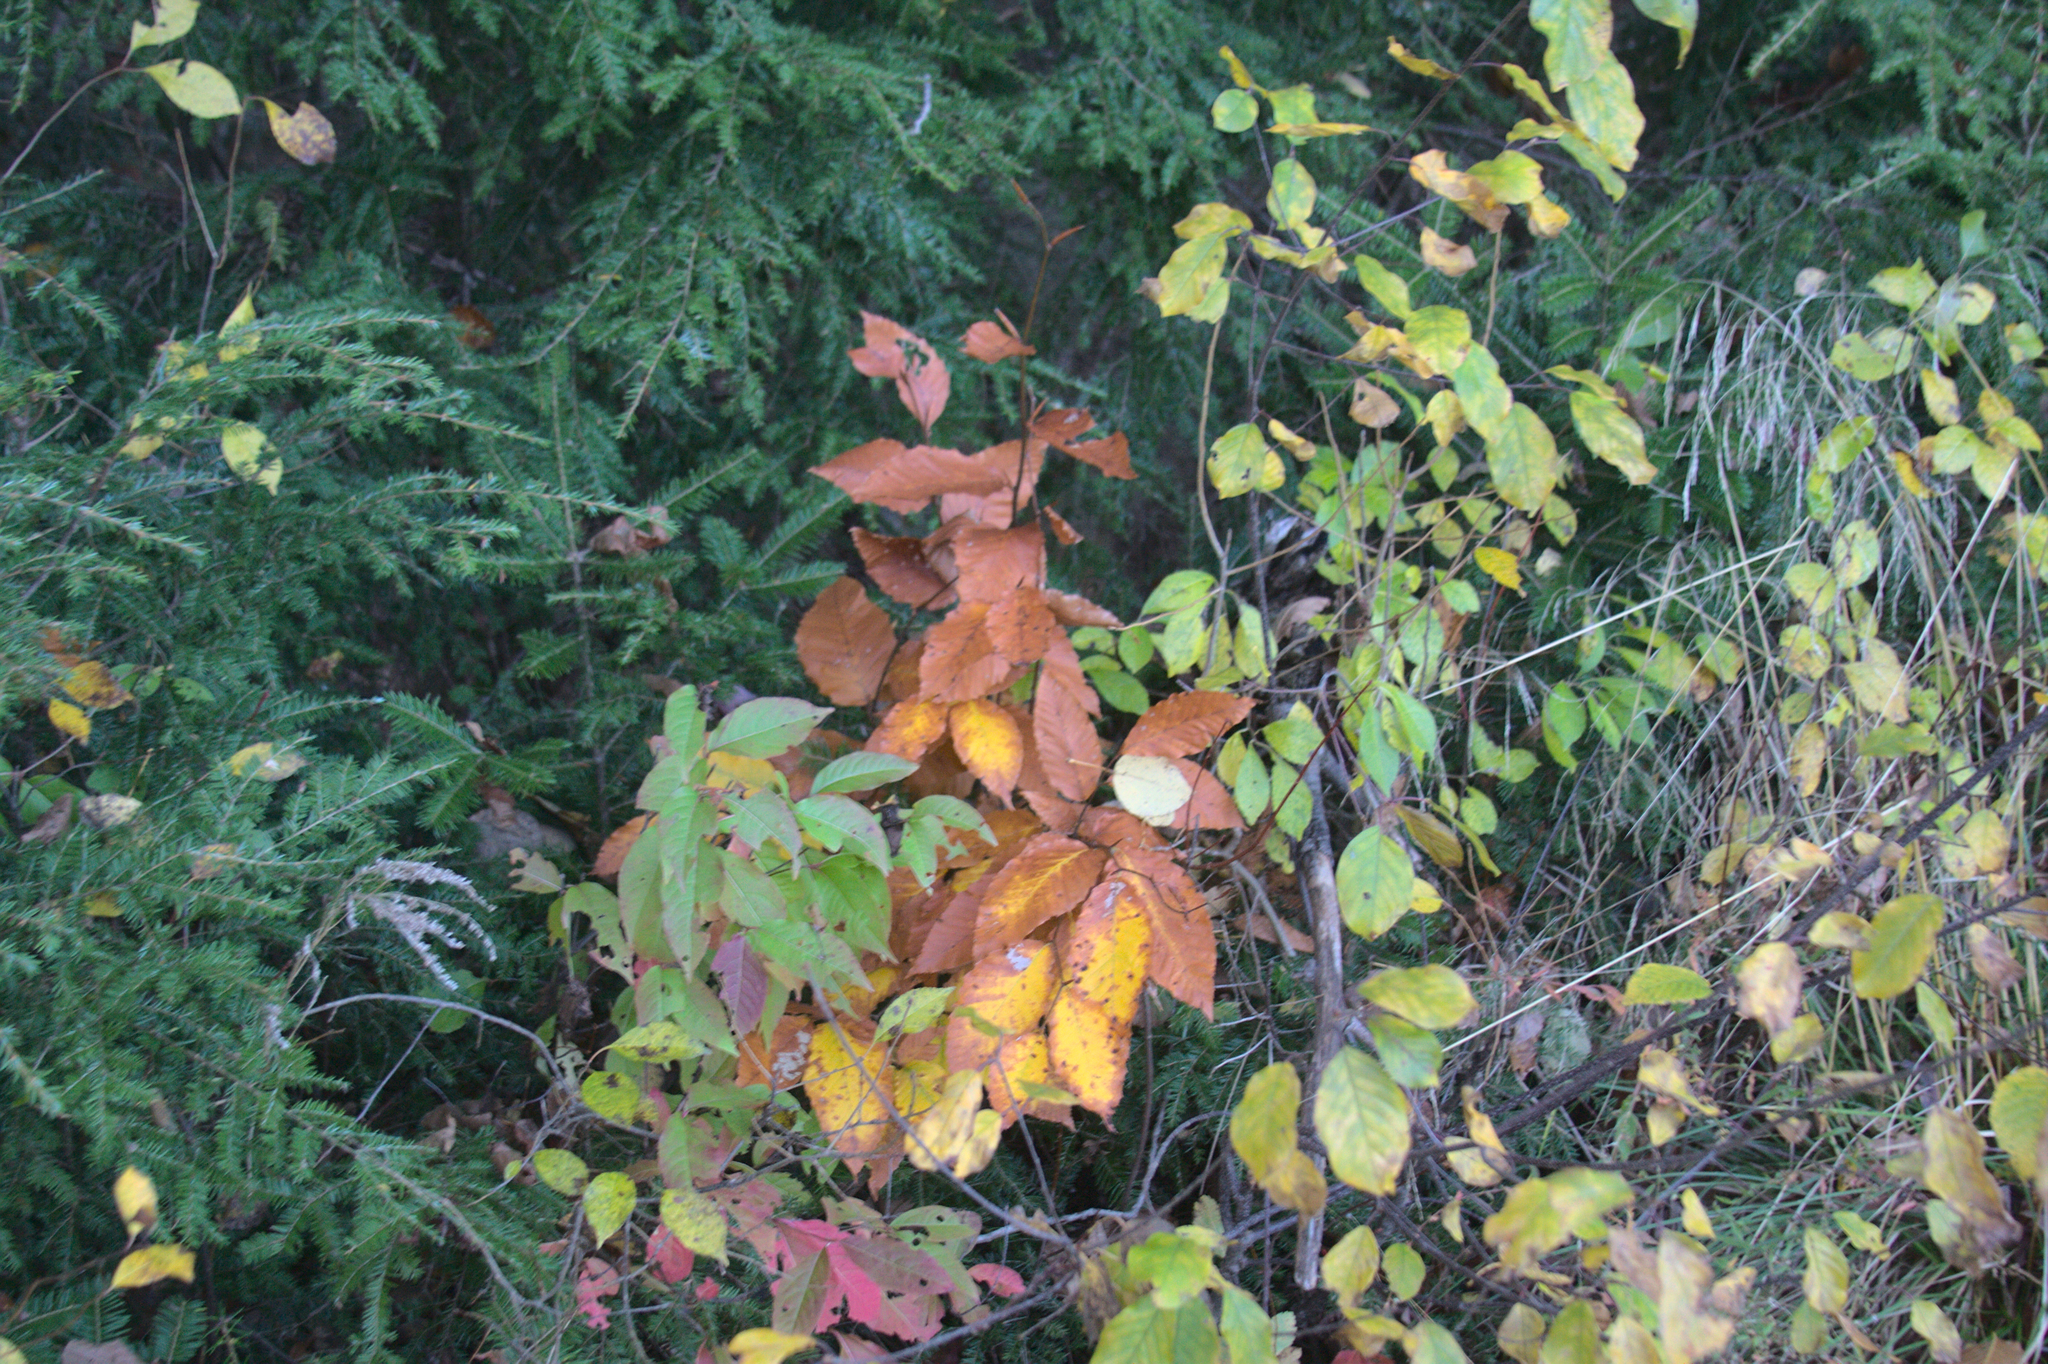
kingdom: Plantae
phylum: Tracheophyta
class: Magnoliopsida
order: Fagales
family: Fagaceae
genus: Fagus
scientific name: Fagus grandifolia
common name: American beech
